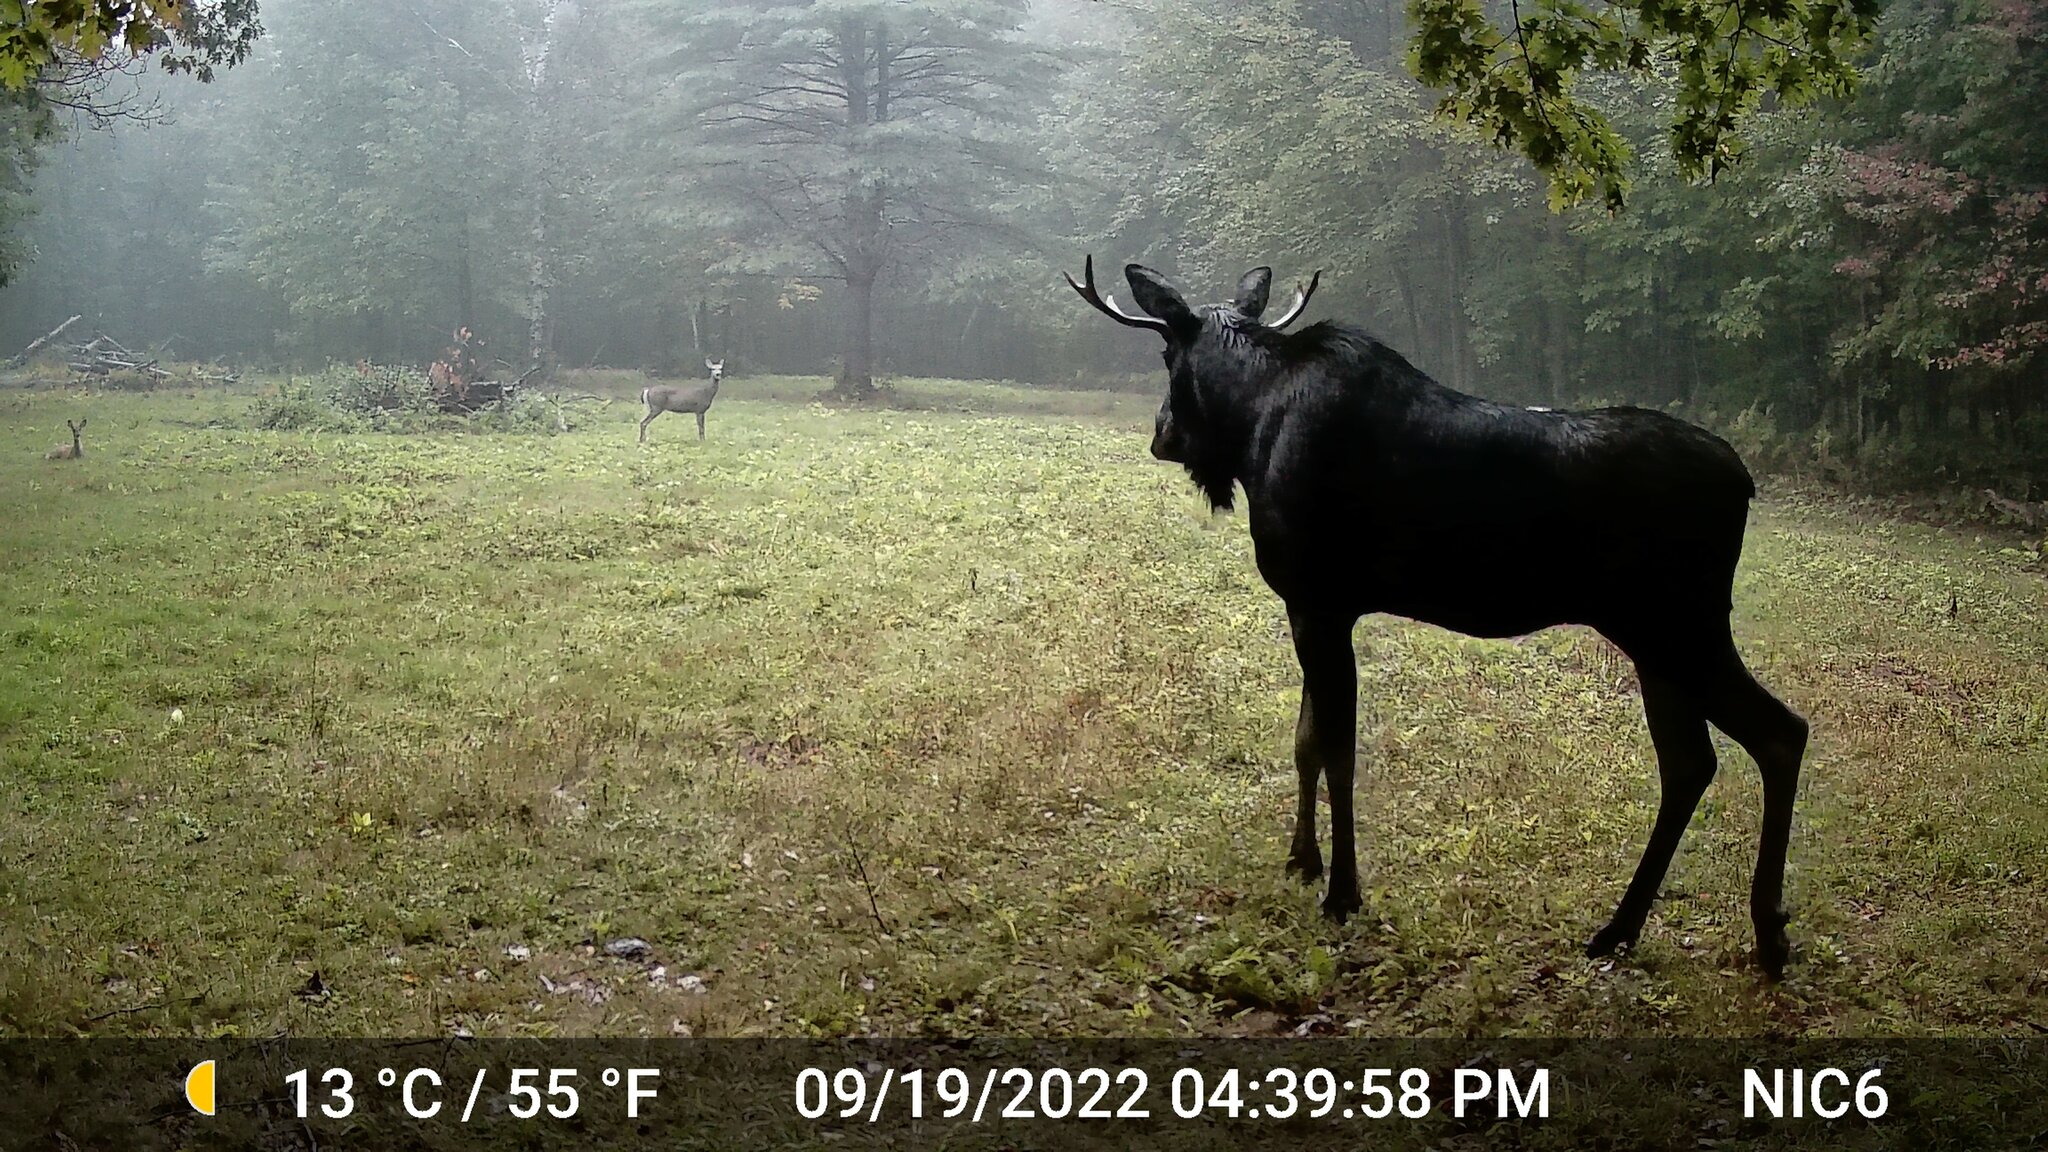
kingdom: Animalia
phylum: Chordata
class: Mammalia
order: Artiodactyla
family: Cervidae
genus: Odocoileus
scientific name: Odocoileus virginianus
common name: White-tailed deer
